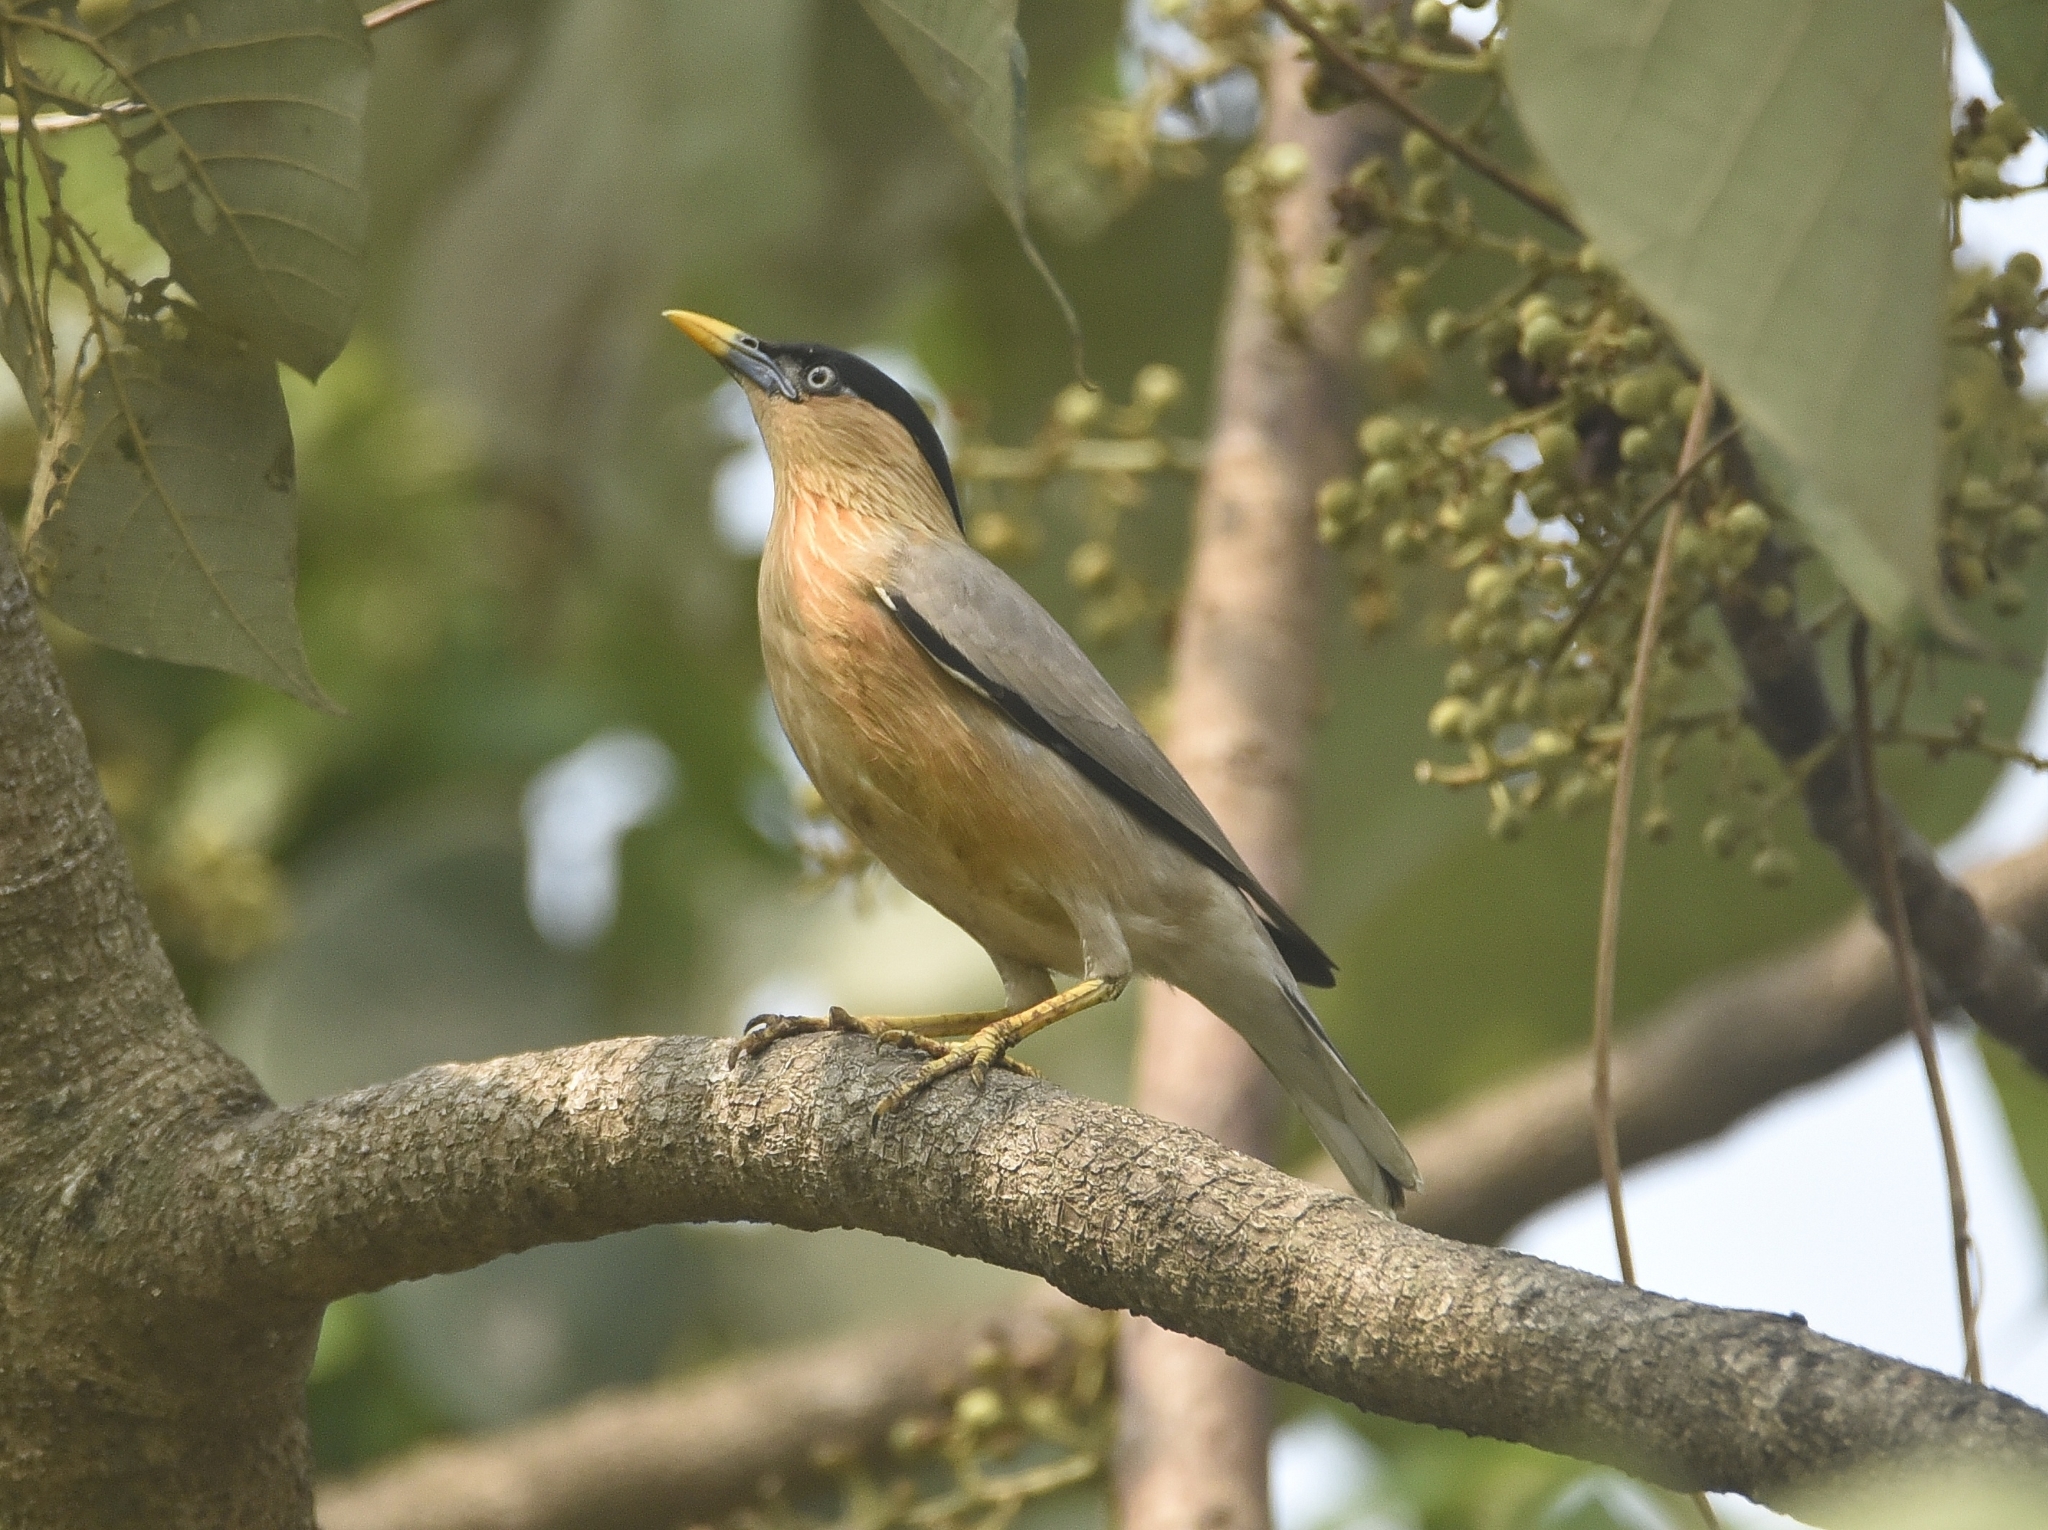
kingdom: Animalia
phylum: Chordata
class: Aves
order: Passeriformes
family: Sturnidae
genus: Sturnia
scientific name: Sturnia pagodarum
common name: Brahminy starling
